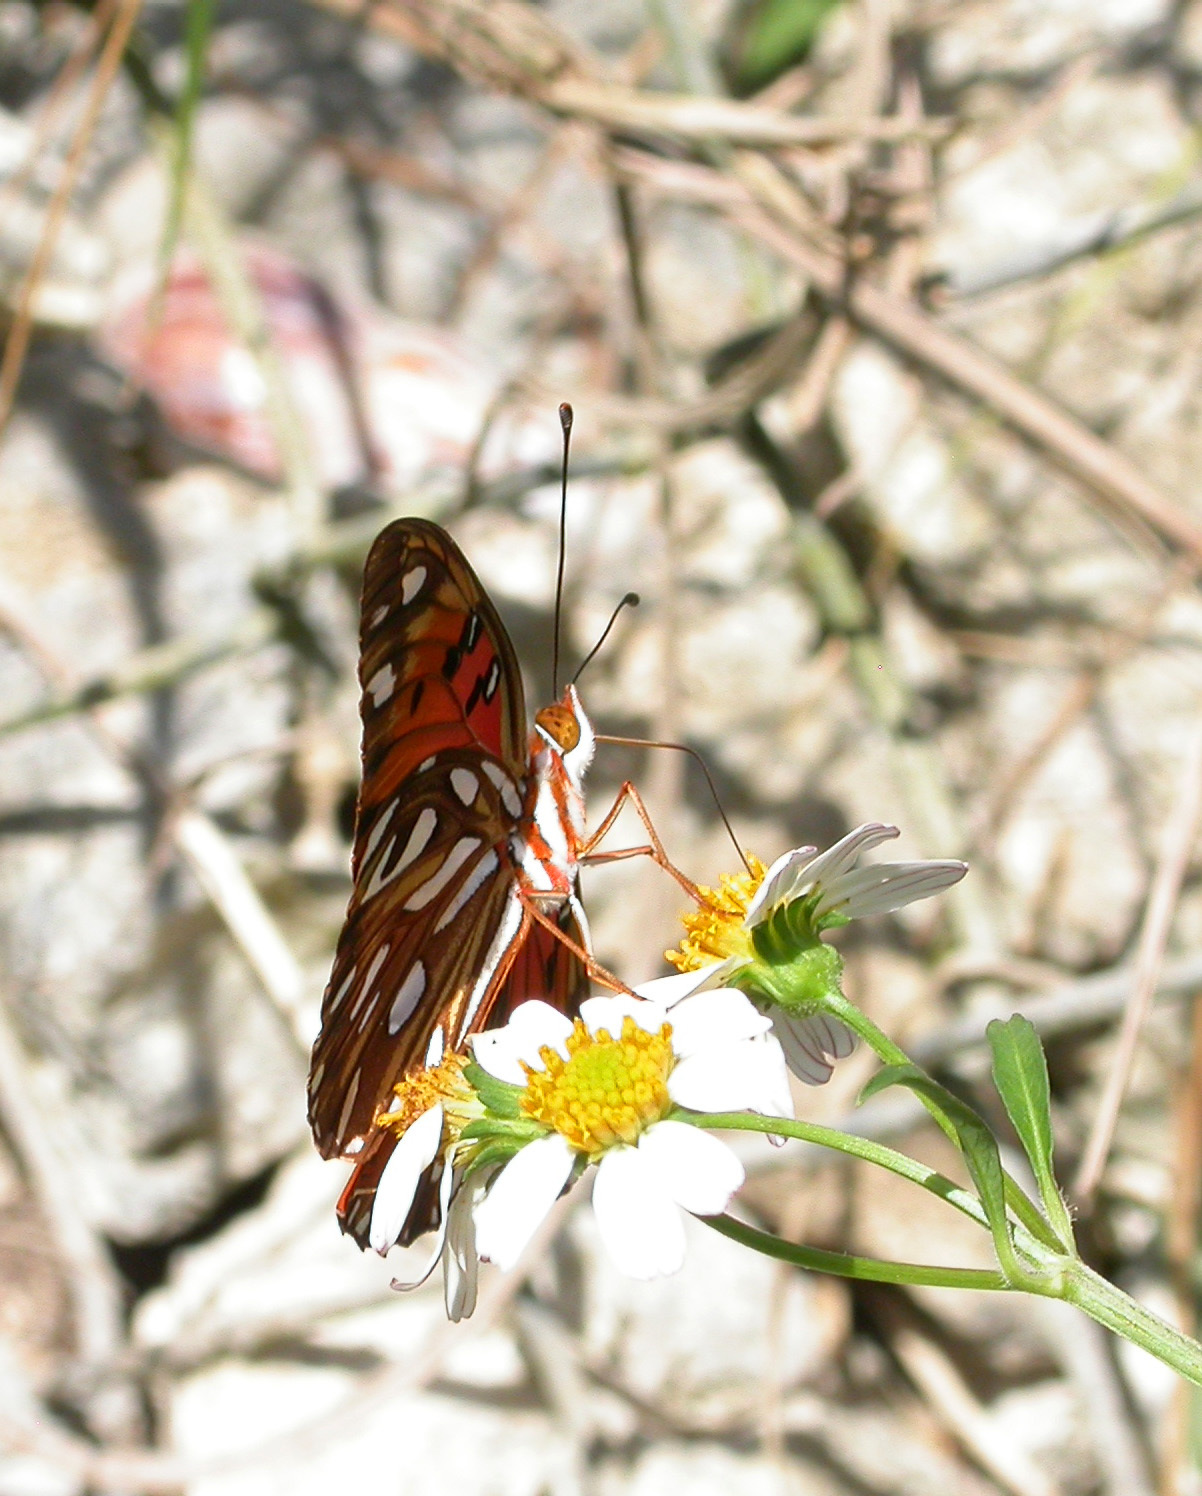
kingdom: Animalia
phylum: Arthropoda
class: Insecta
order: Lepidoptera
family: Nymphalidae
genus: Dione
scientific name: Dione vanillae
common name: Gulf fritillary
